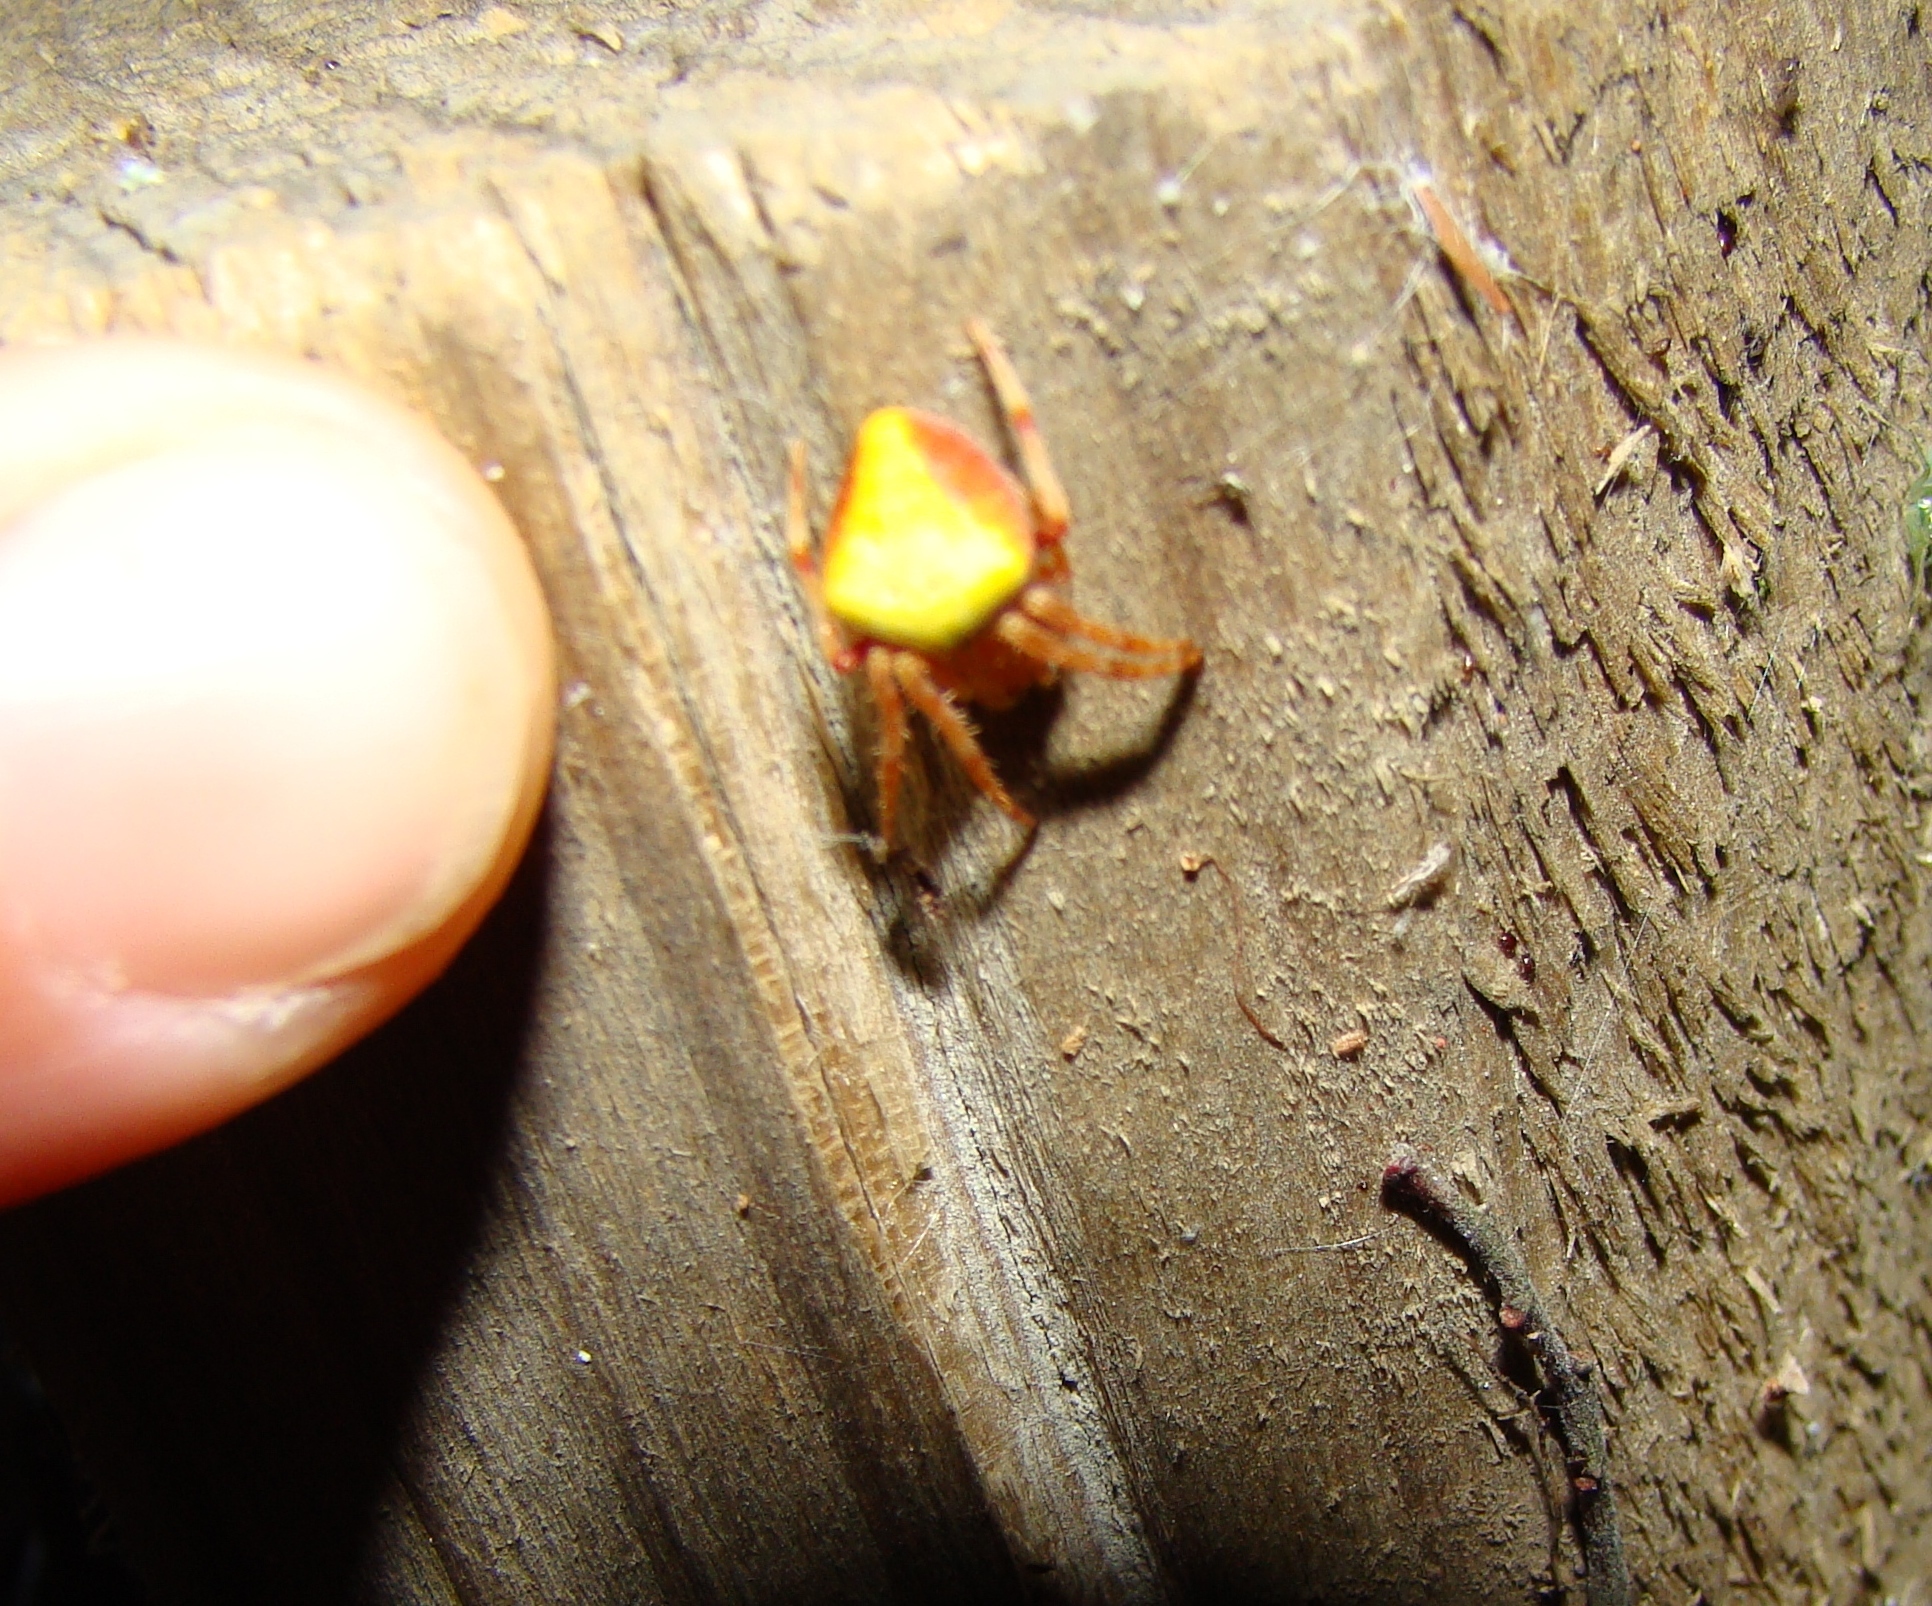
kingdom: Animalia
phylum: Arthropoda
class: Arachnida
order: Araneae
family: Araneidae
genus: Colaranea
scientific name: Colaranea viriditas
